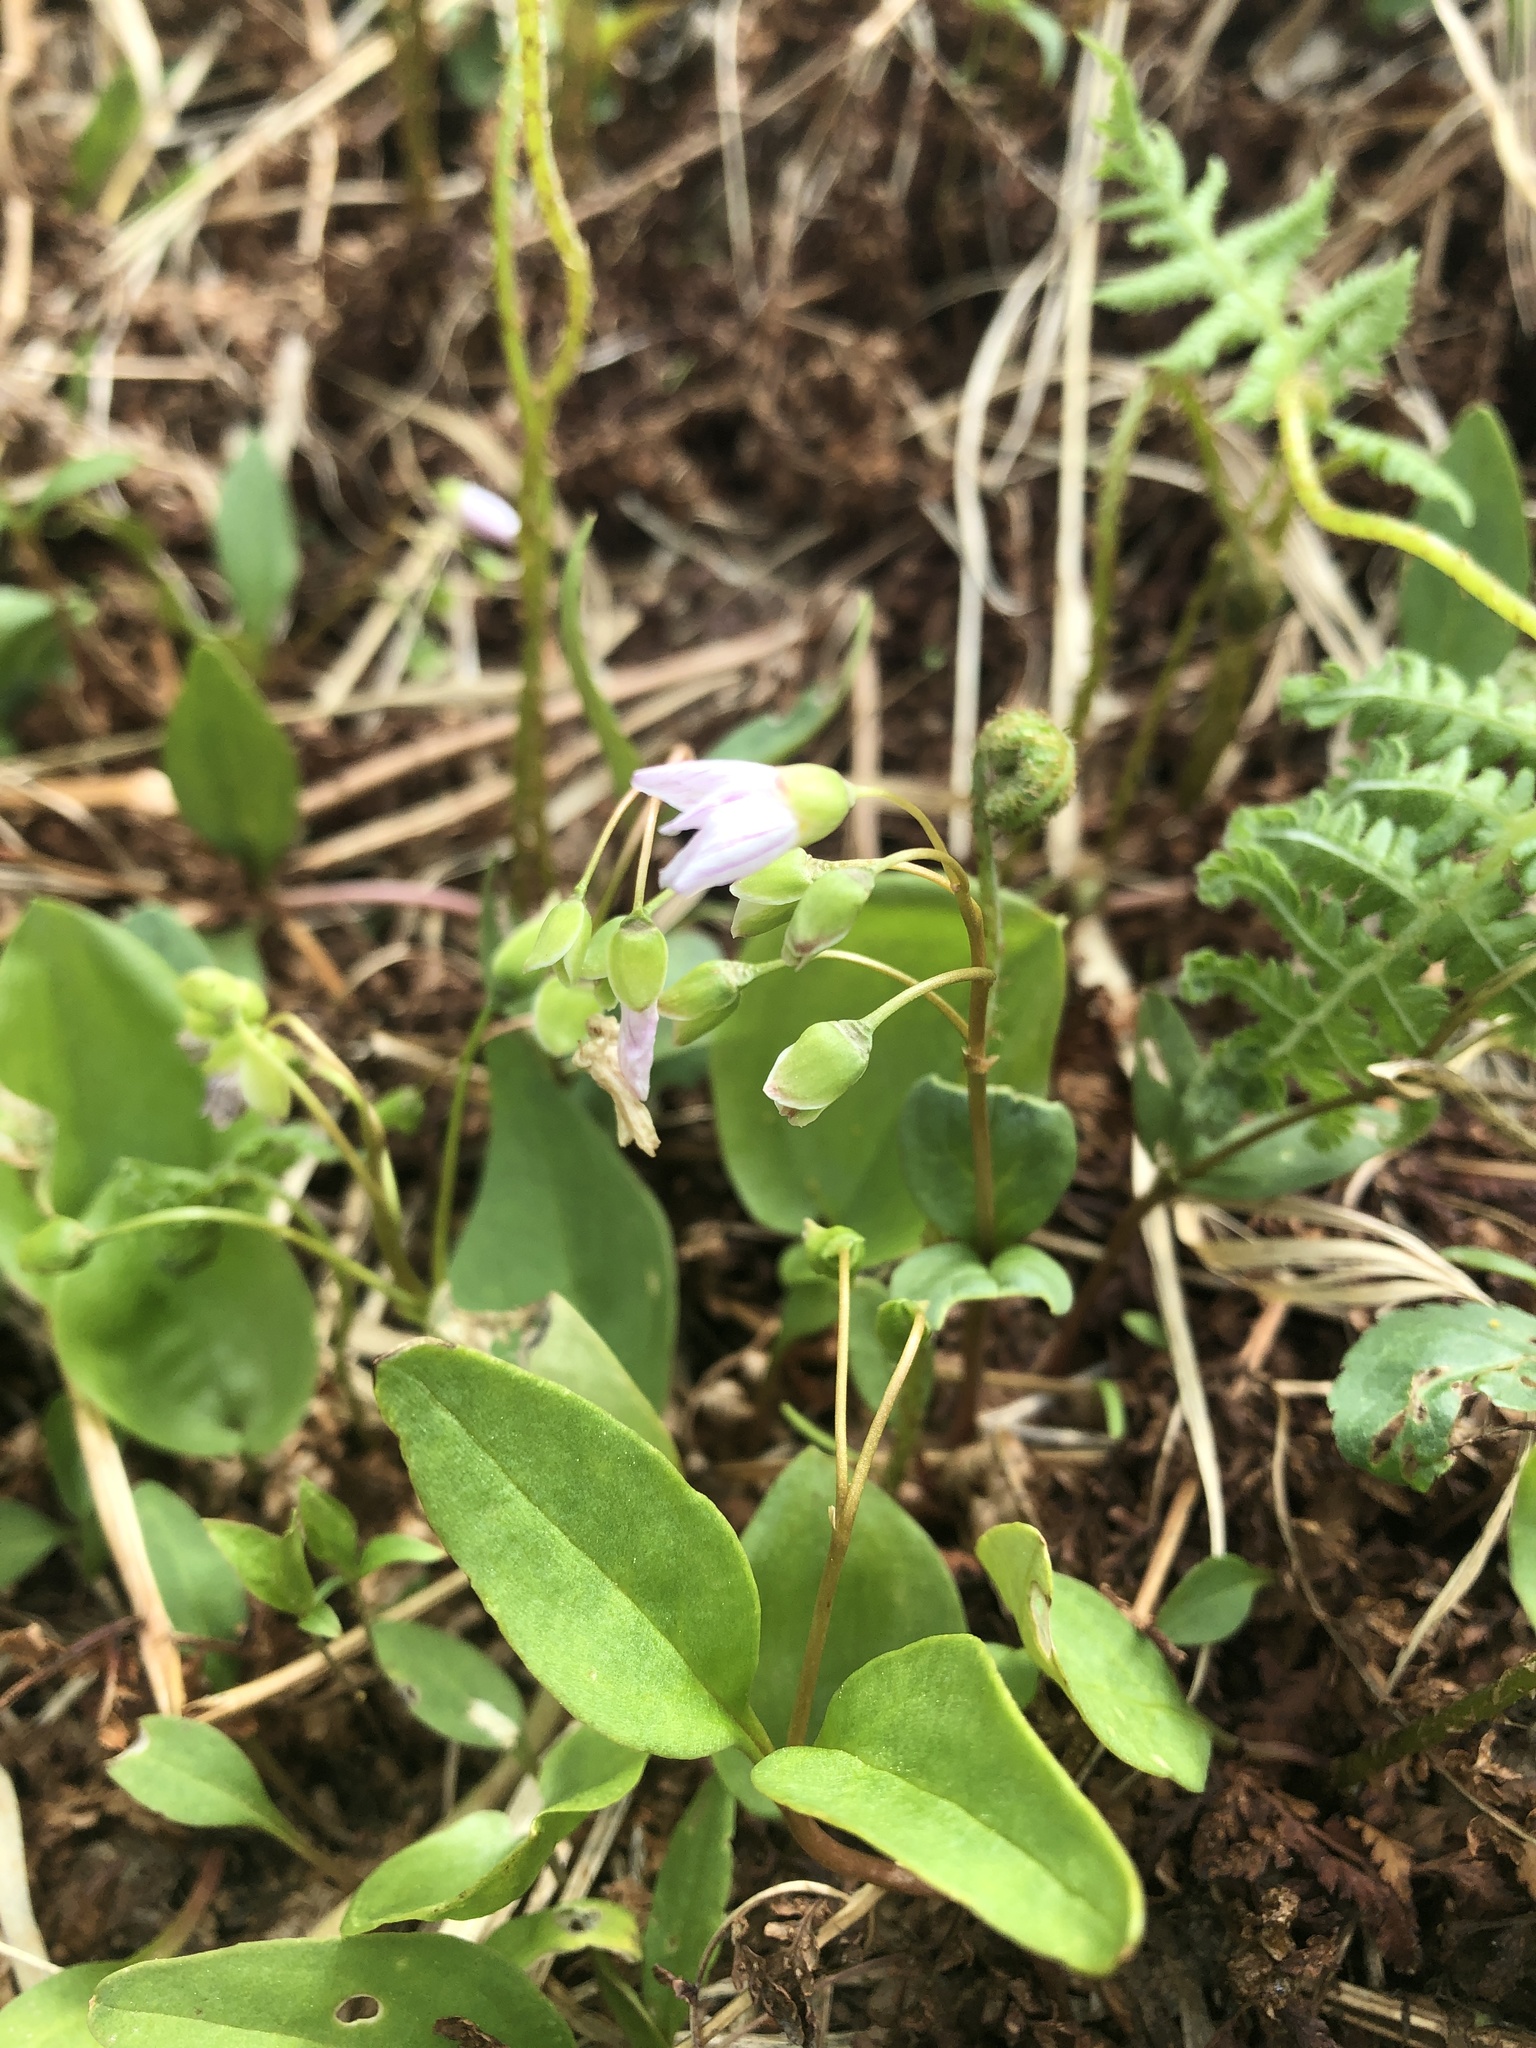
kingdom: Plantae
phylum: Tracheophyta
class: Magnoliopsida
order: Caryophyllales
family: Montiaceae
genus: Claytonia
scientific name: Claytonia caroliniana
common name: Carolina spring beauty
